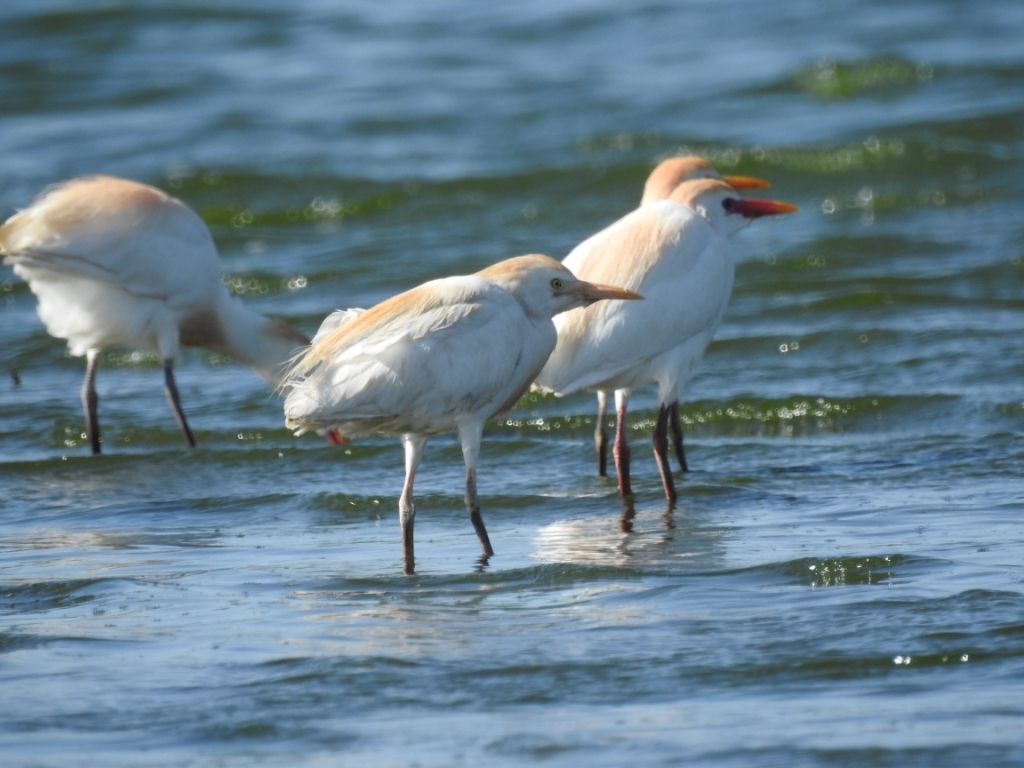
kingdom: Animalia
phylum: Chordata
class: Aves
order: Pelecaniformes
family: Ardeidae
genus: Bubulcus
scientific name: Bubulcus ibis
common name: Cattle egret
